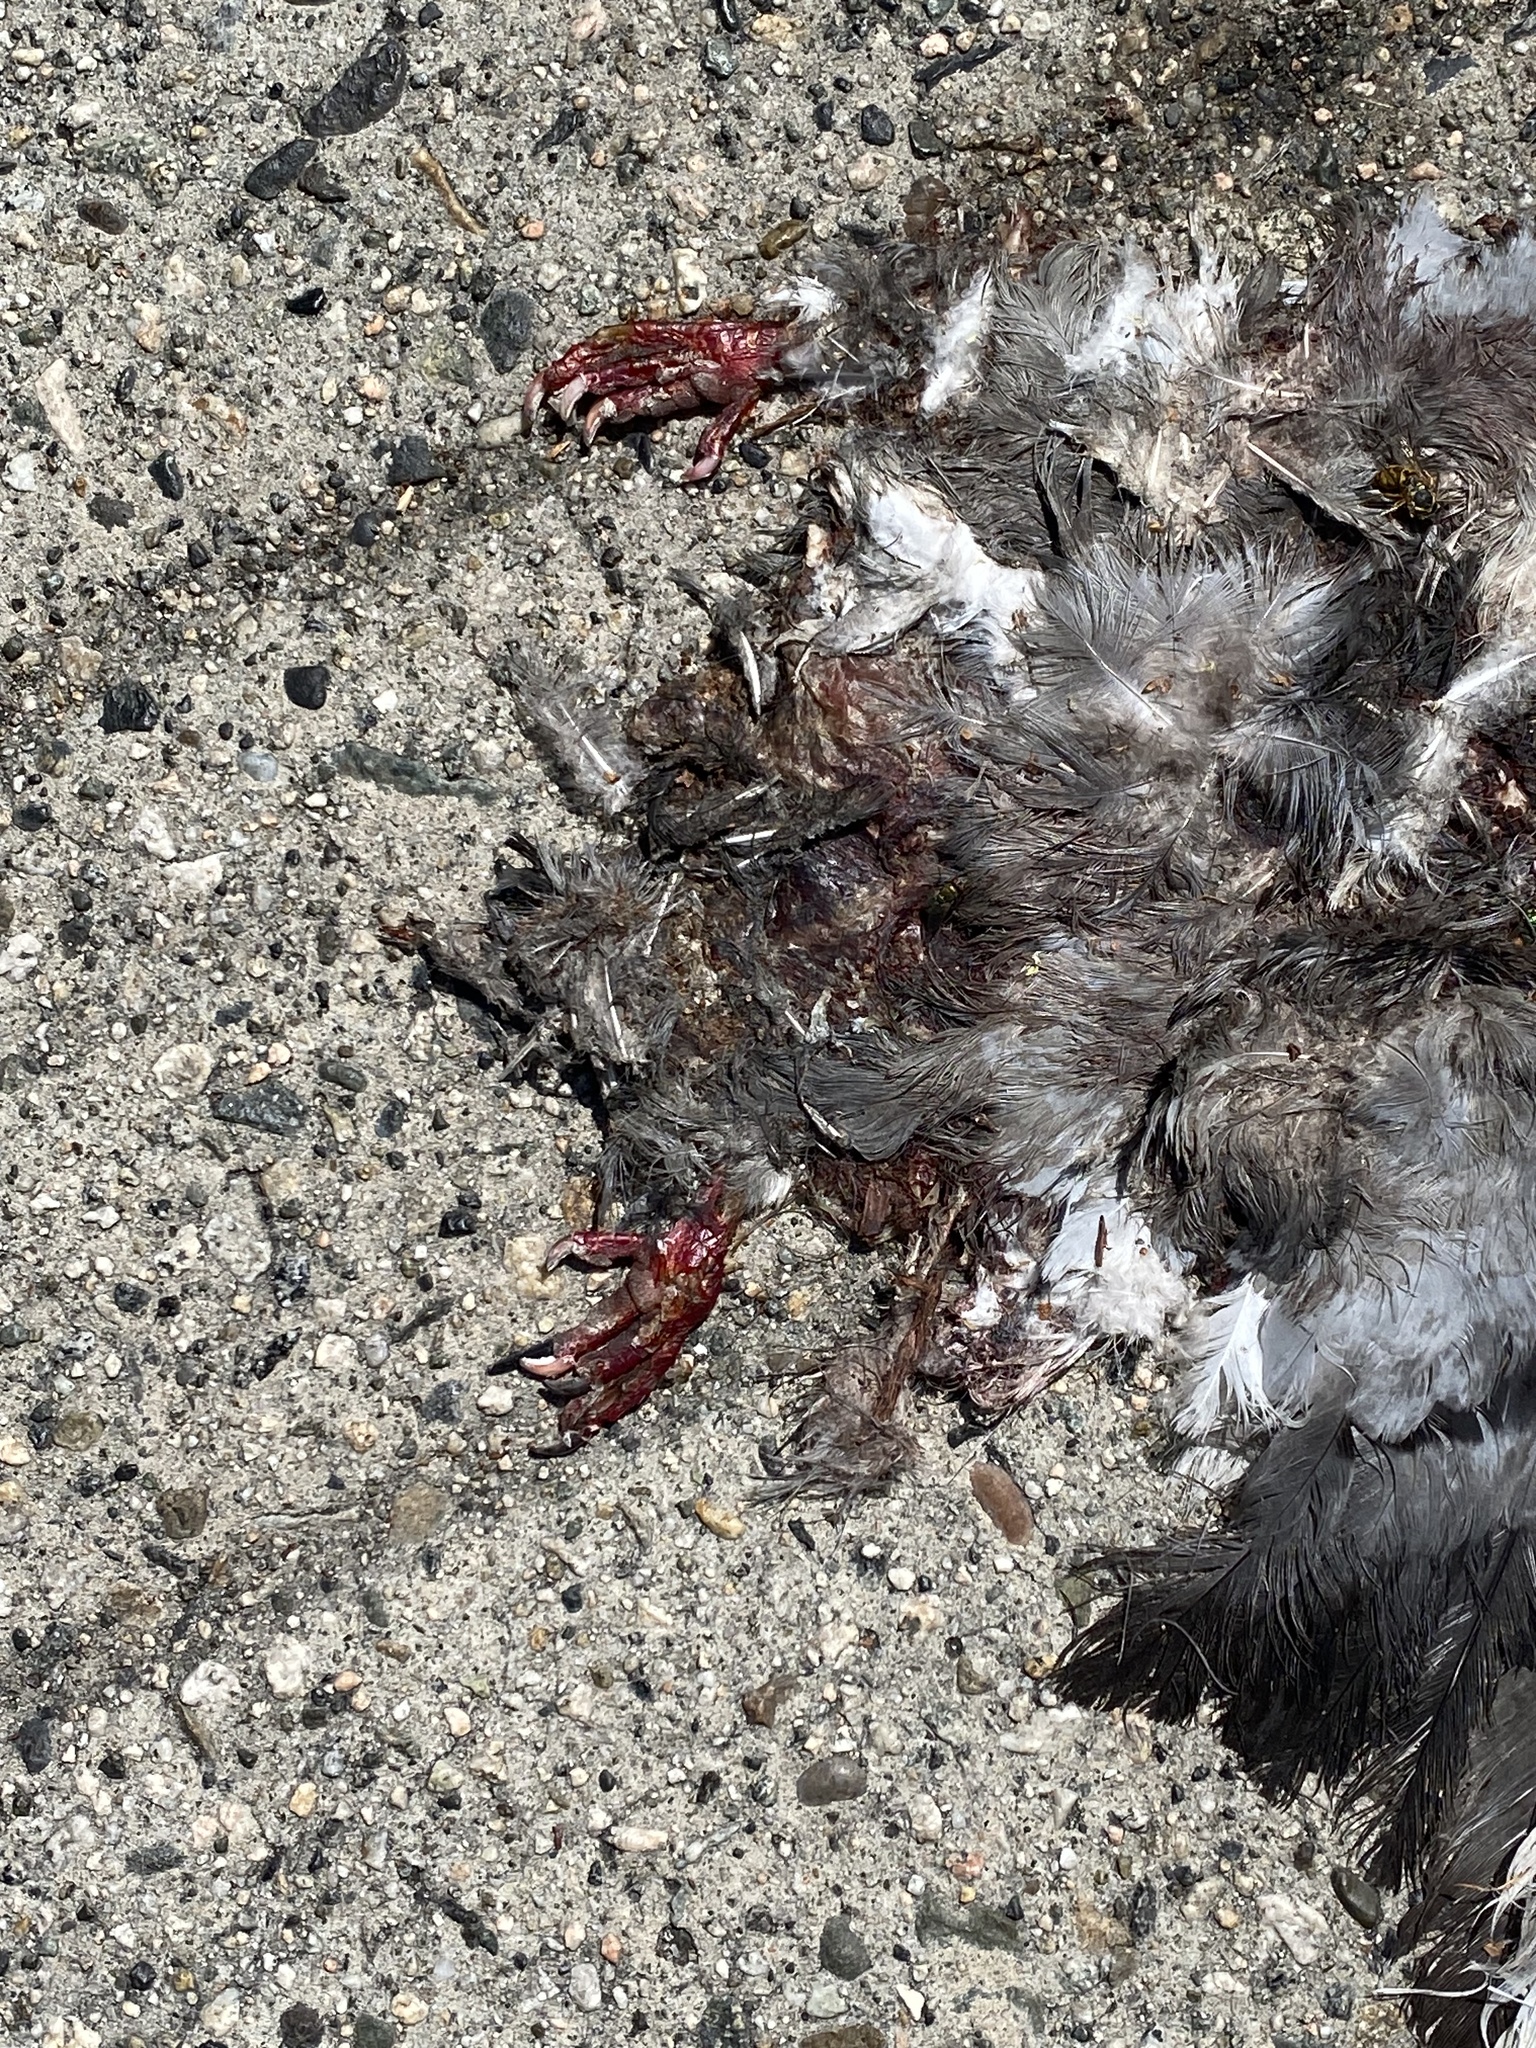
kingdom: Animalia
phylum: Chordata
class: Aves
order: Columbiformes
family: Columbidae
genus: Columba
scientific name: Columba livia
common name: Rock pigeon
